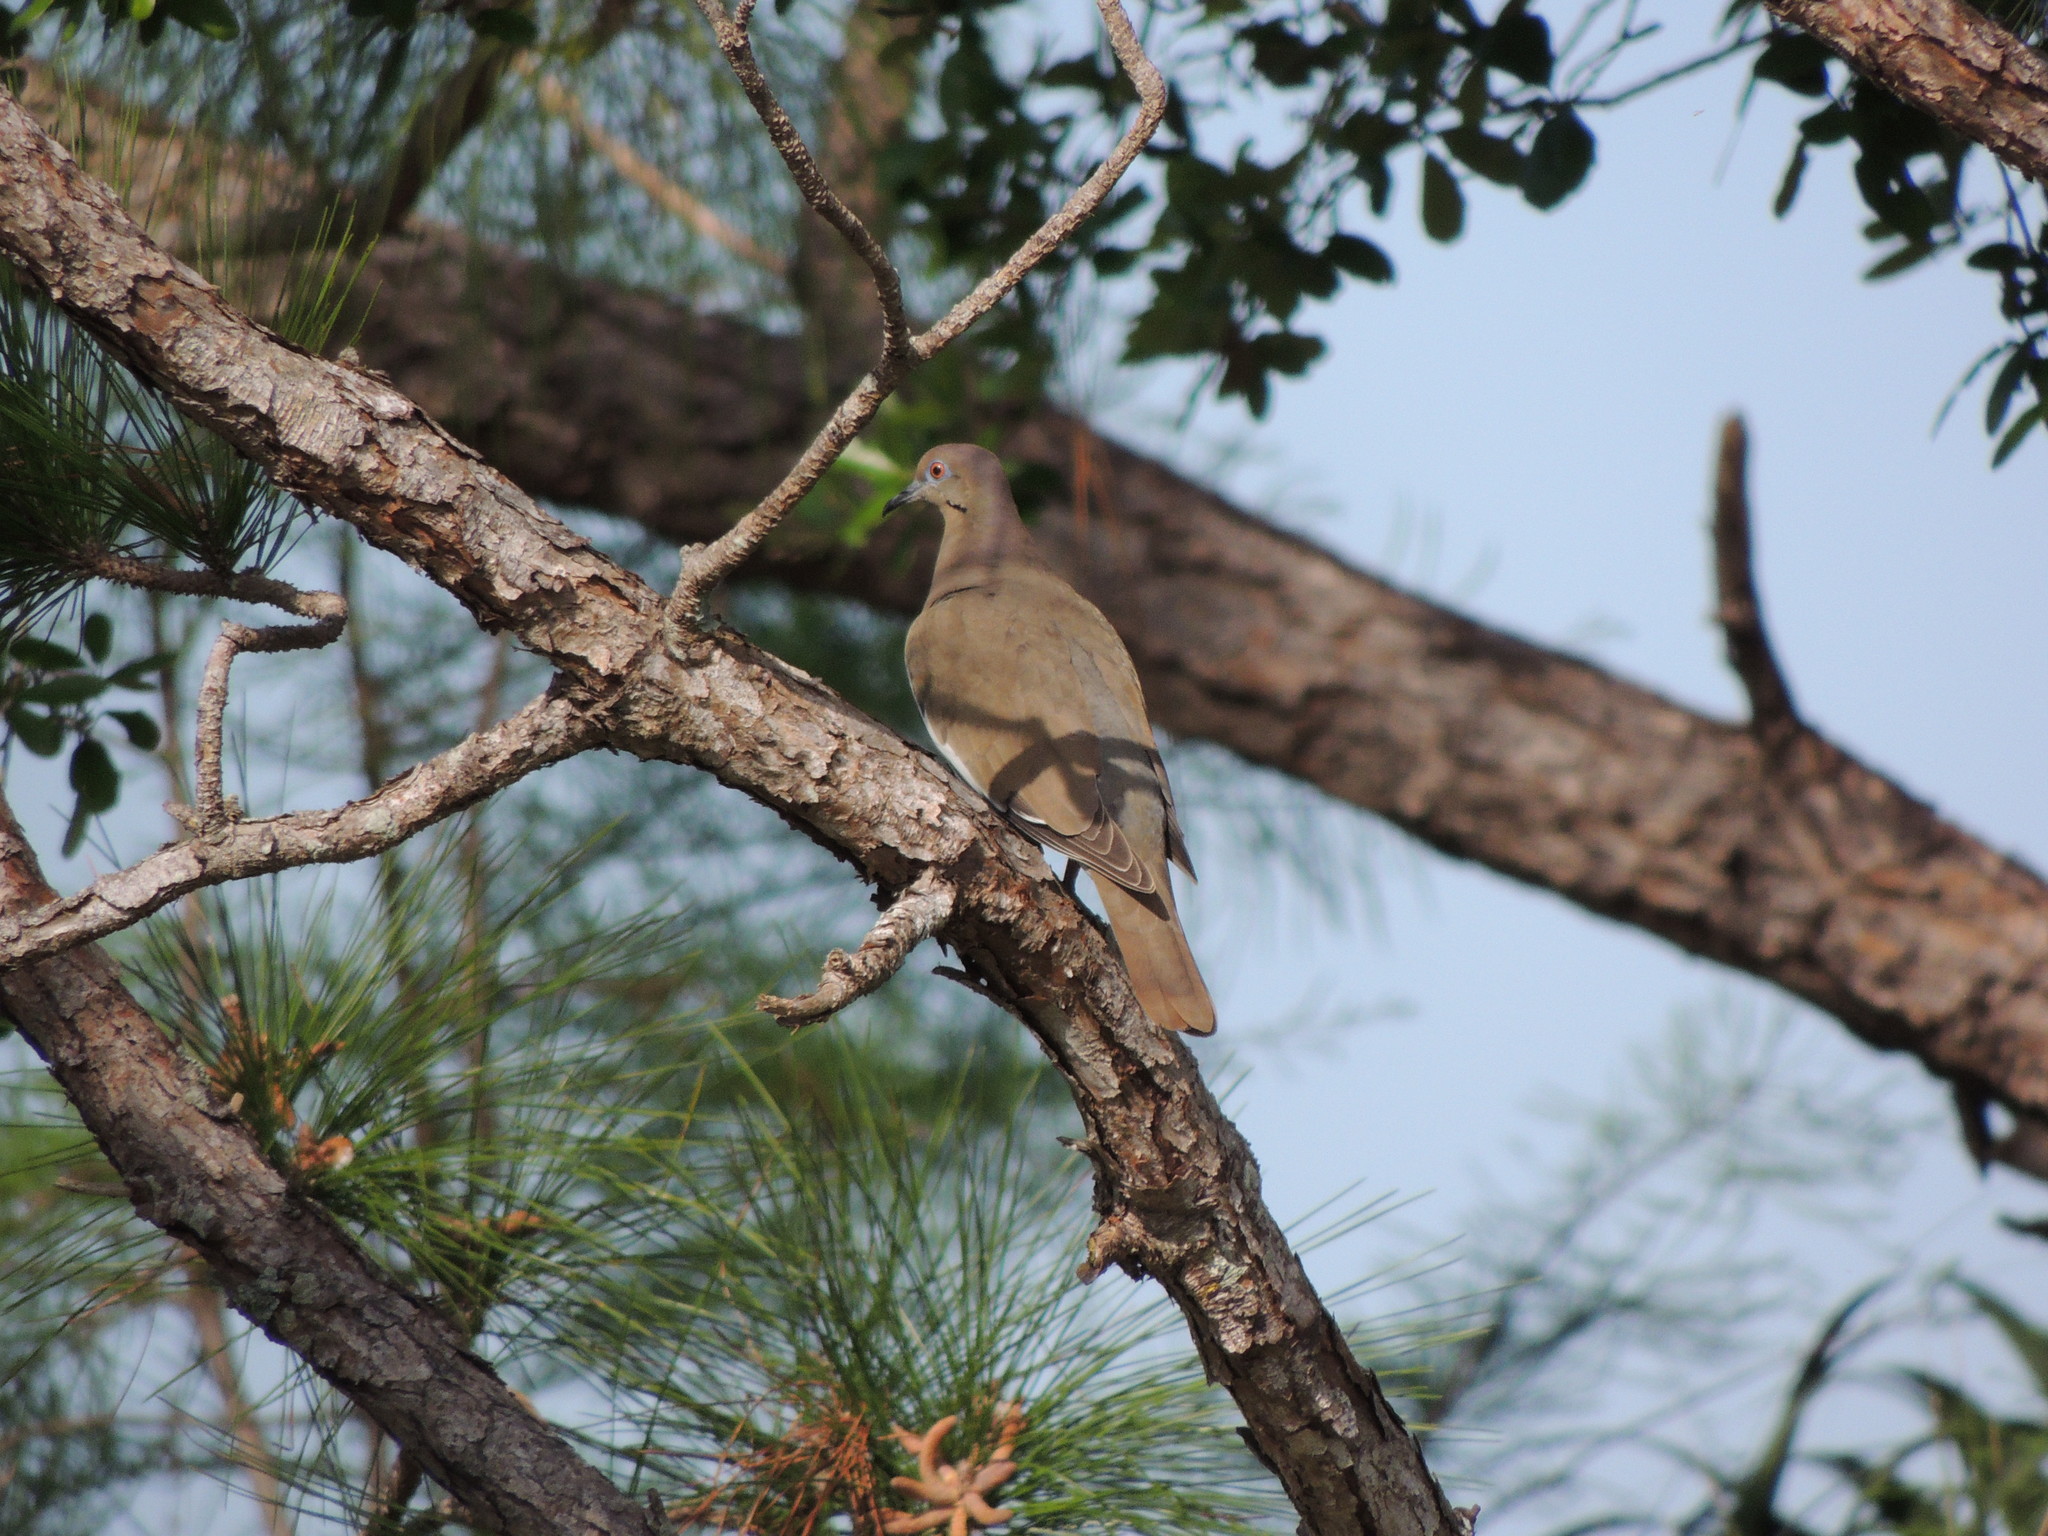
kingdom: Animalia
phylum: Chordata
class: Aves
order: Columbiformes
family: Columbidae
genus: Zenaida
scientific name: Zenaida asiatica
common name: White-winged dove
